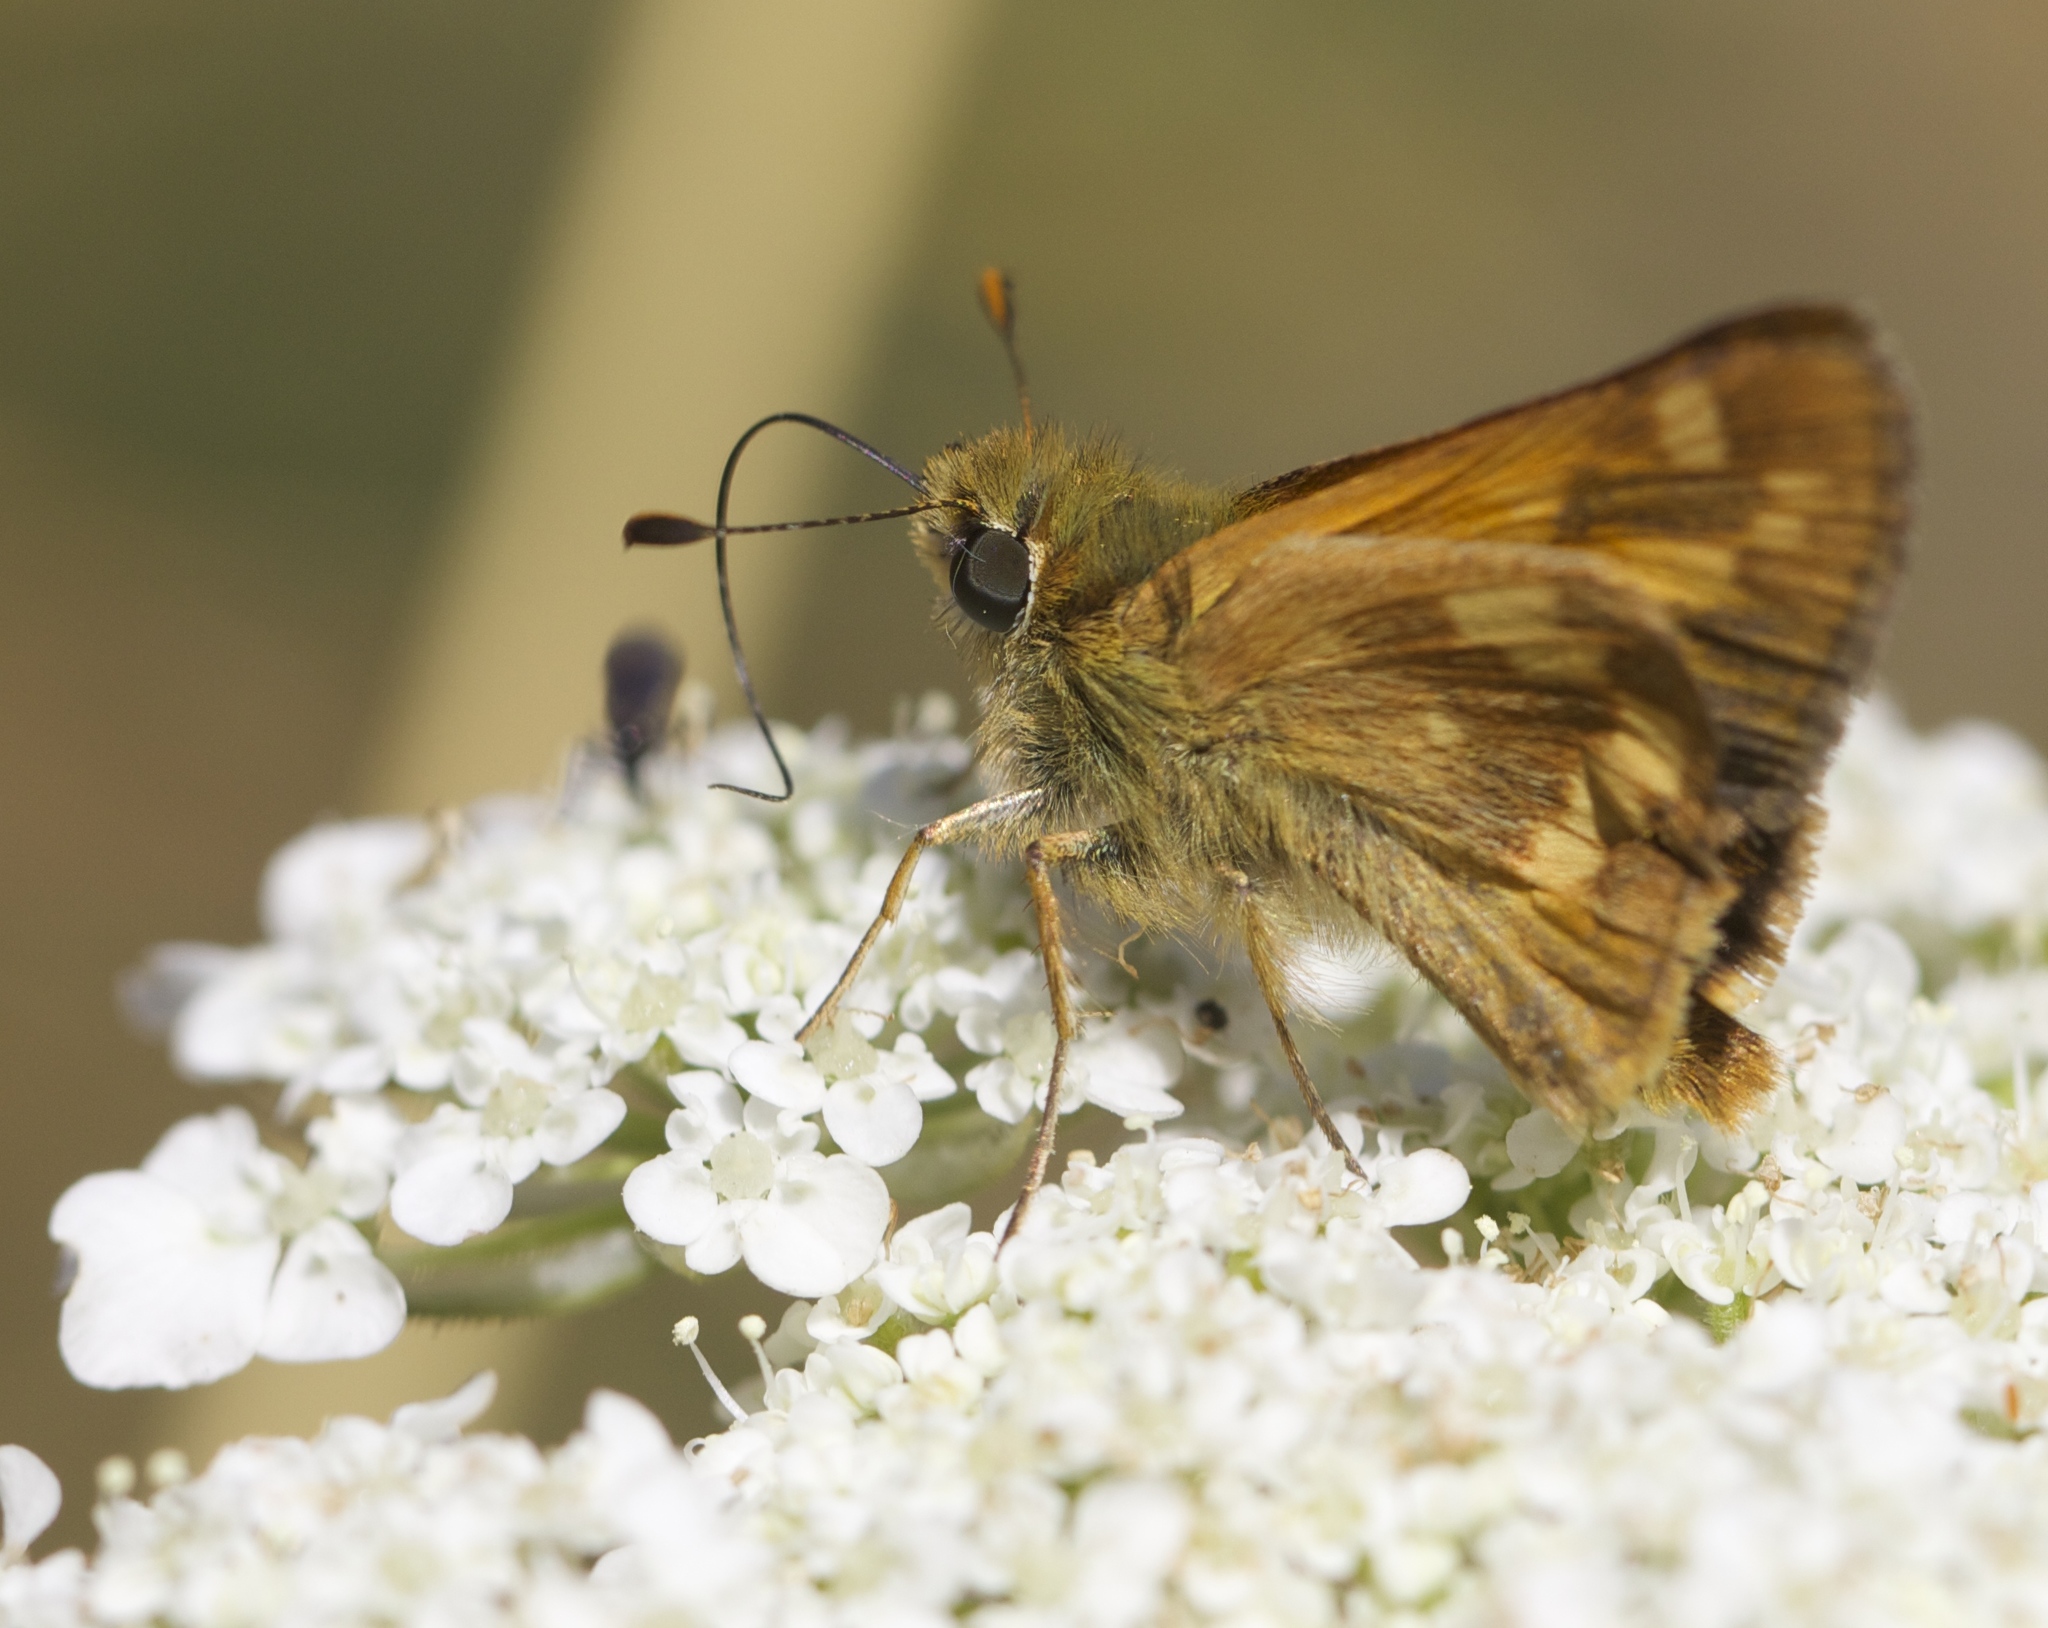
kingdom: Animalia
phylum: Arthropoda
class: Insecta
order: Lepidoptera
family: Hesperiidae
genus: Ochlodes
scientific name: Ochlodes sylvanoides
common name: Woodland skipper
